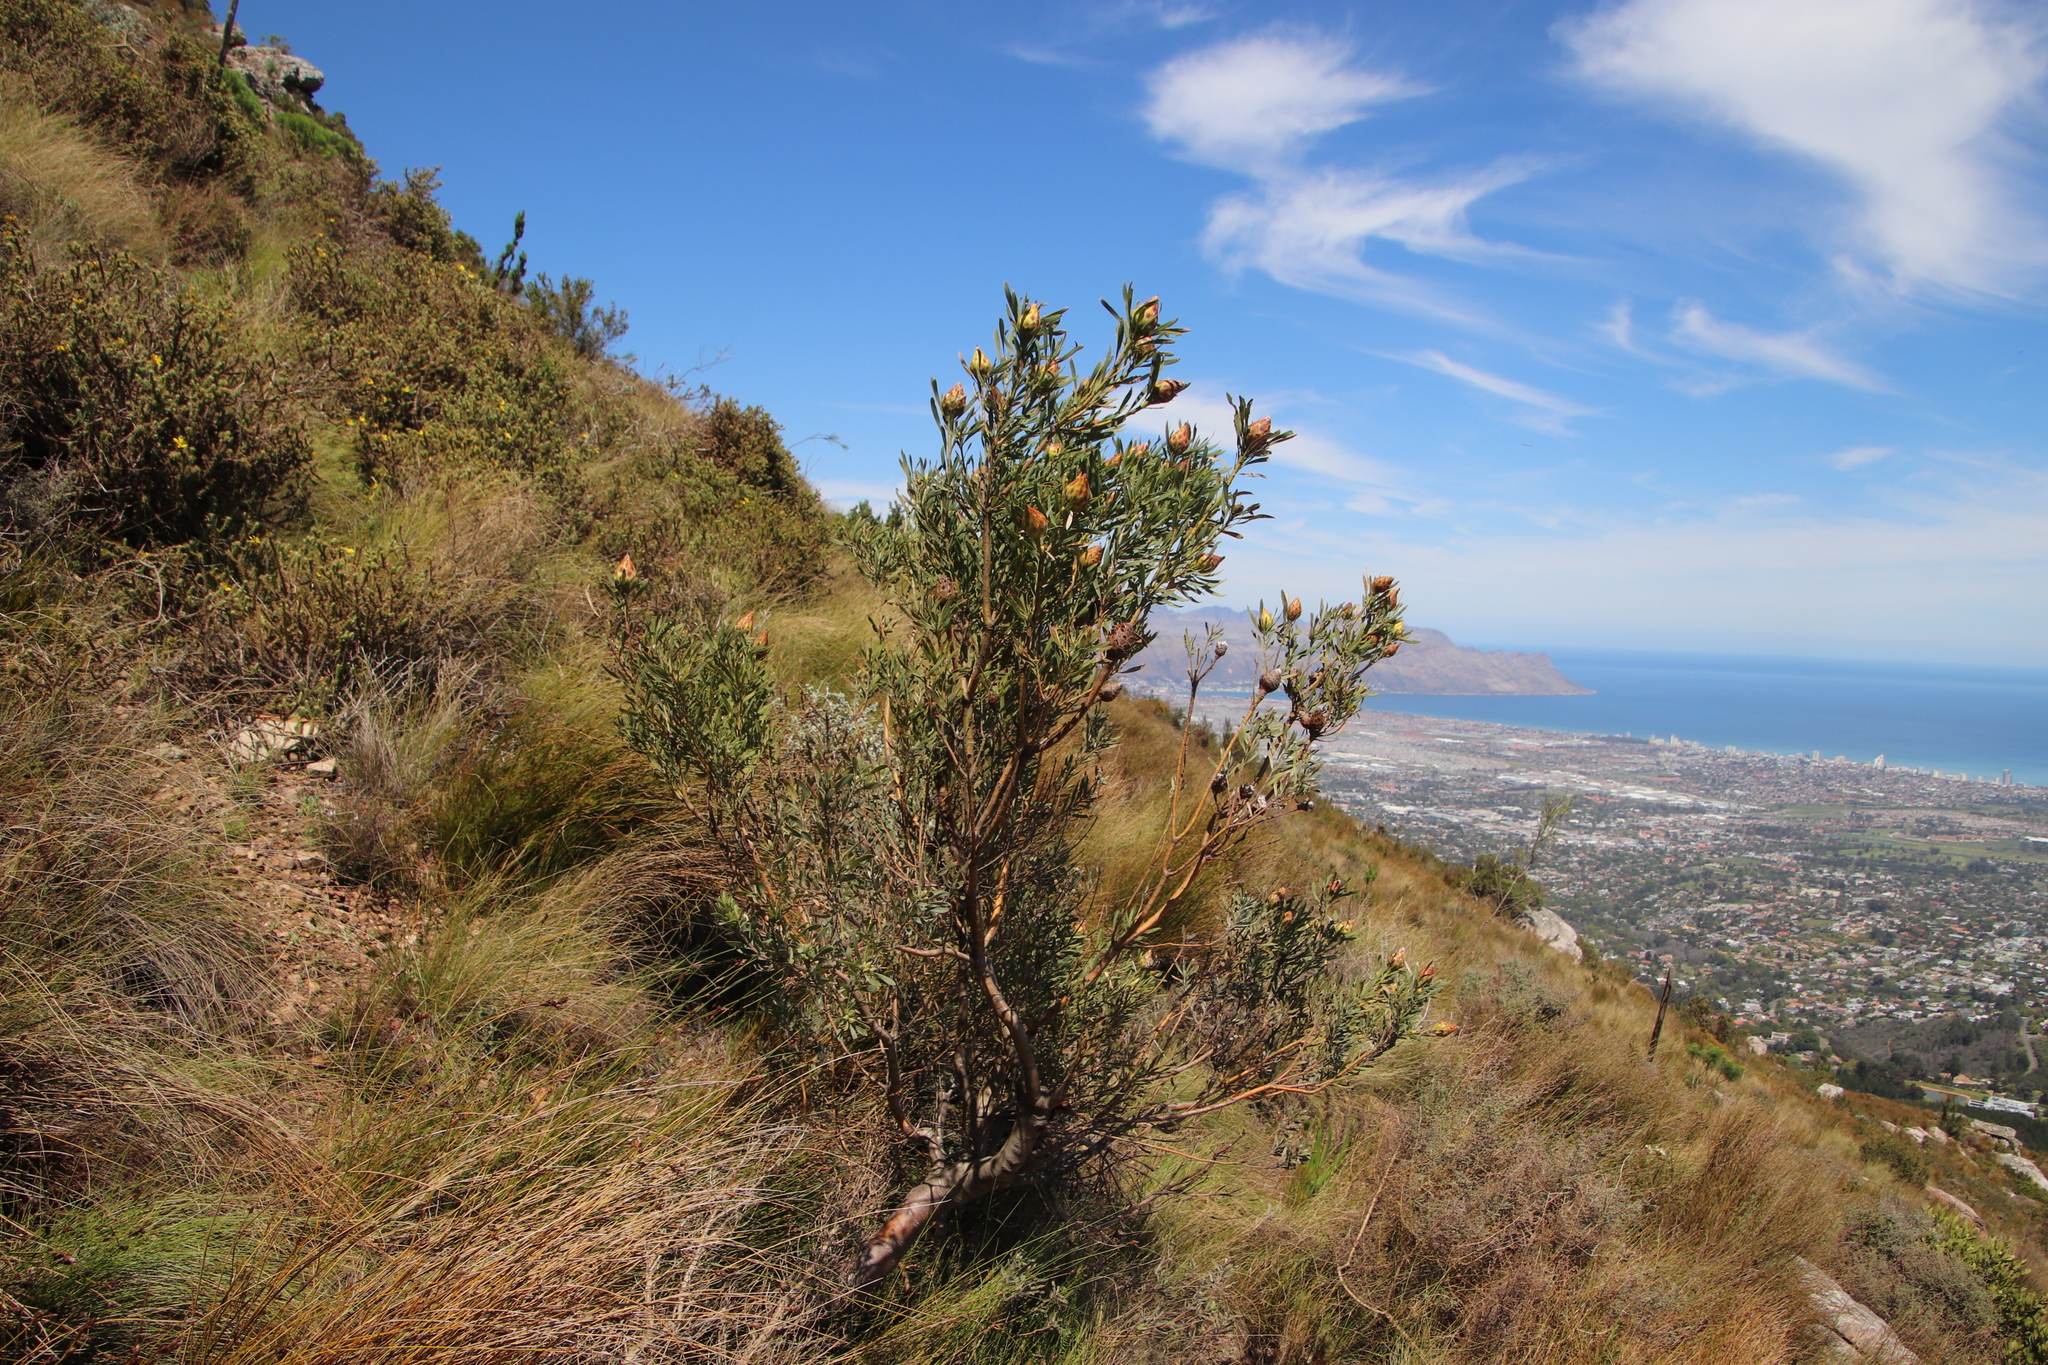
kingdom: Plantae
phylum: Tracheophyta
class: Magnoliopsida
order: Proteales
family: Proteaceae
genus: Leucadendron
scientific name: Leucadendron rubrum
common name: Spinning top
